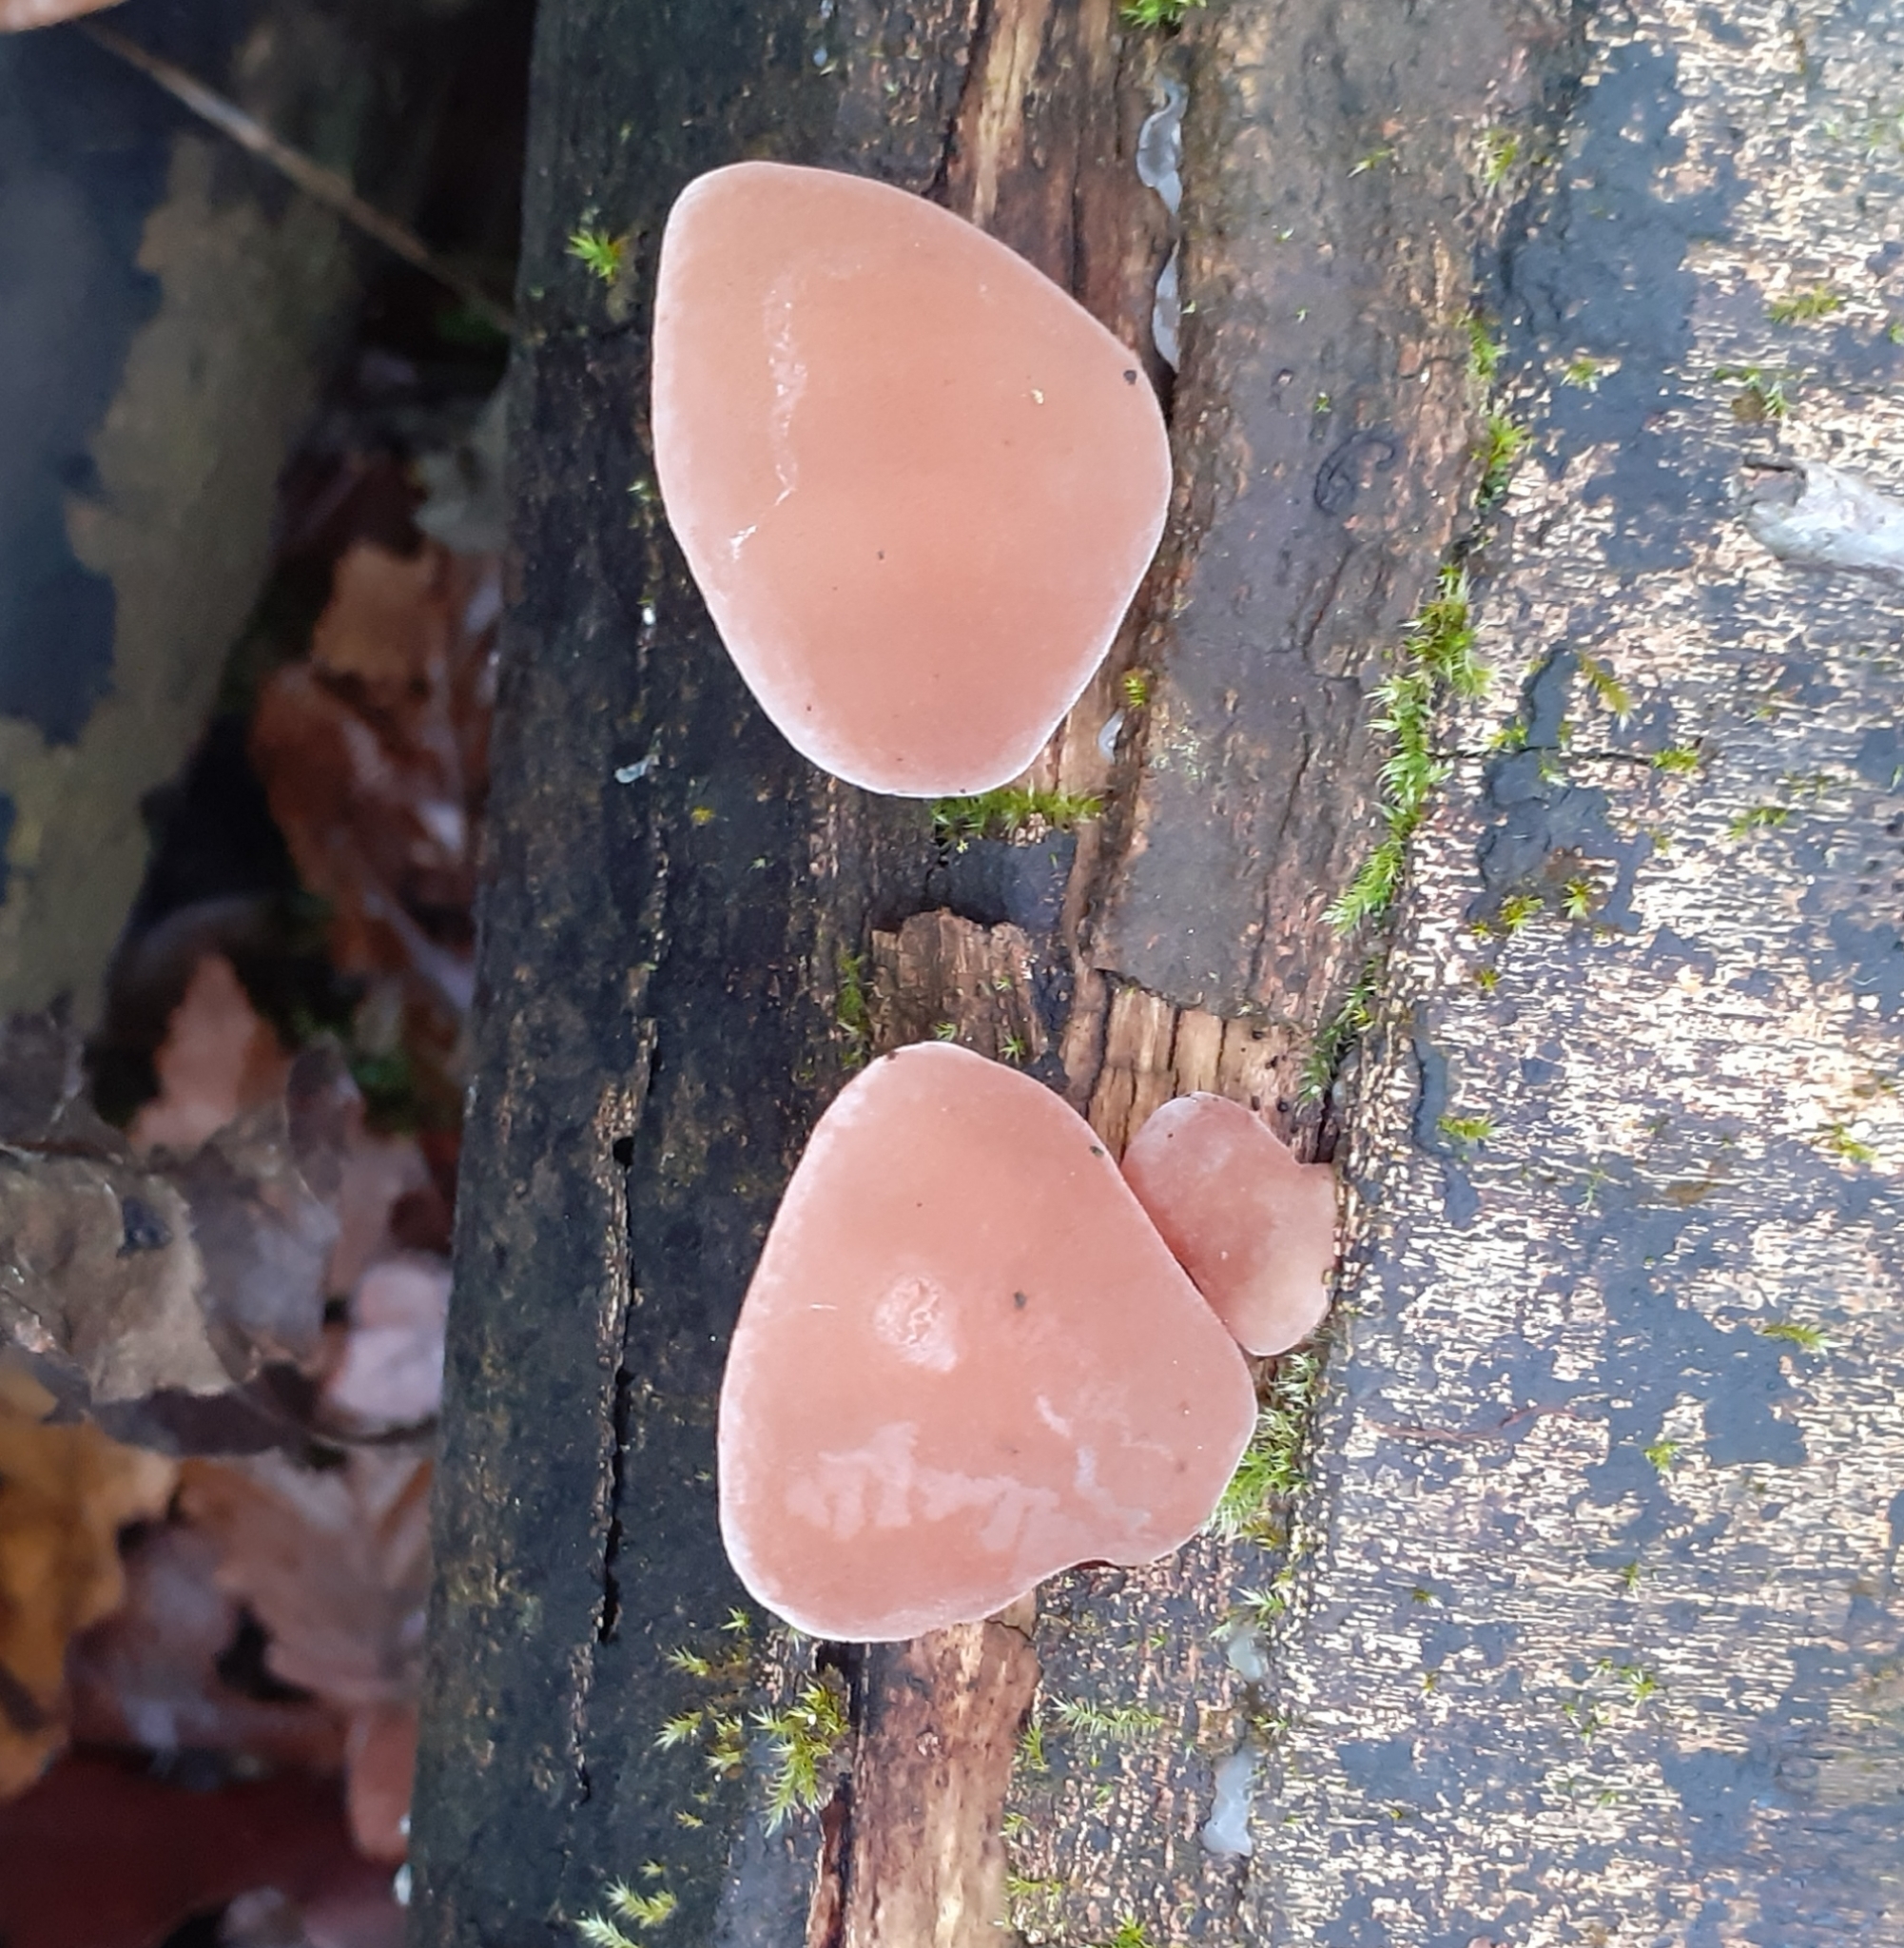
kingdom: Fungi
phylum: Basidiomycota
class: Agaricomycetes
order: Auriculariales
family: Auriculariaceae
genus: Auricularia
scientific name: Auricularia auricula-judae
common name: Jelly ear
